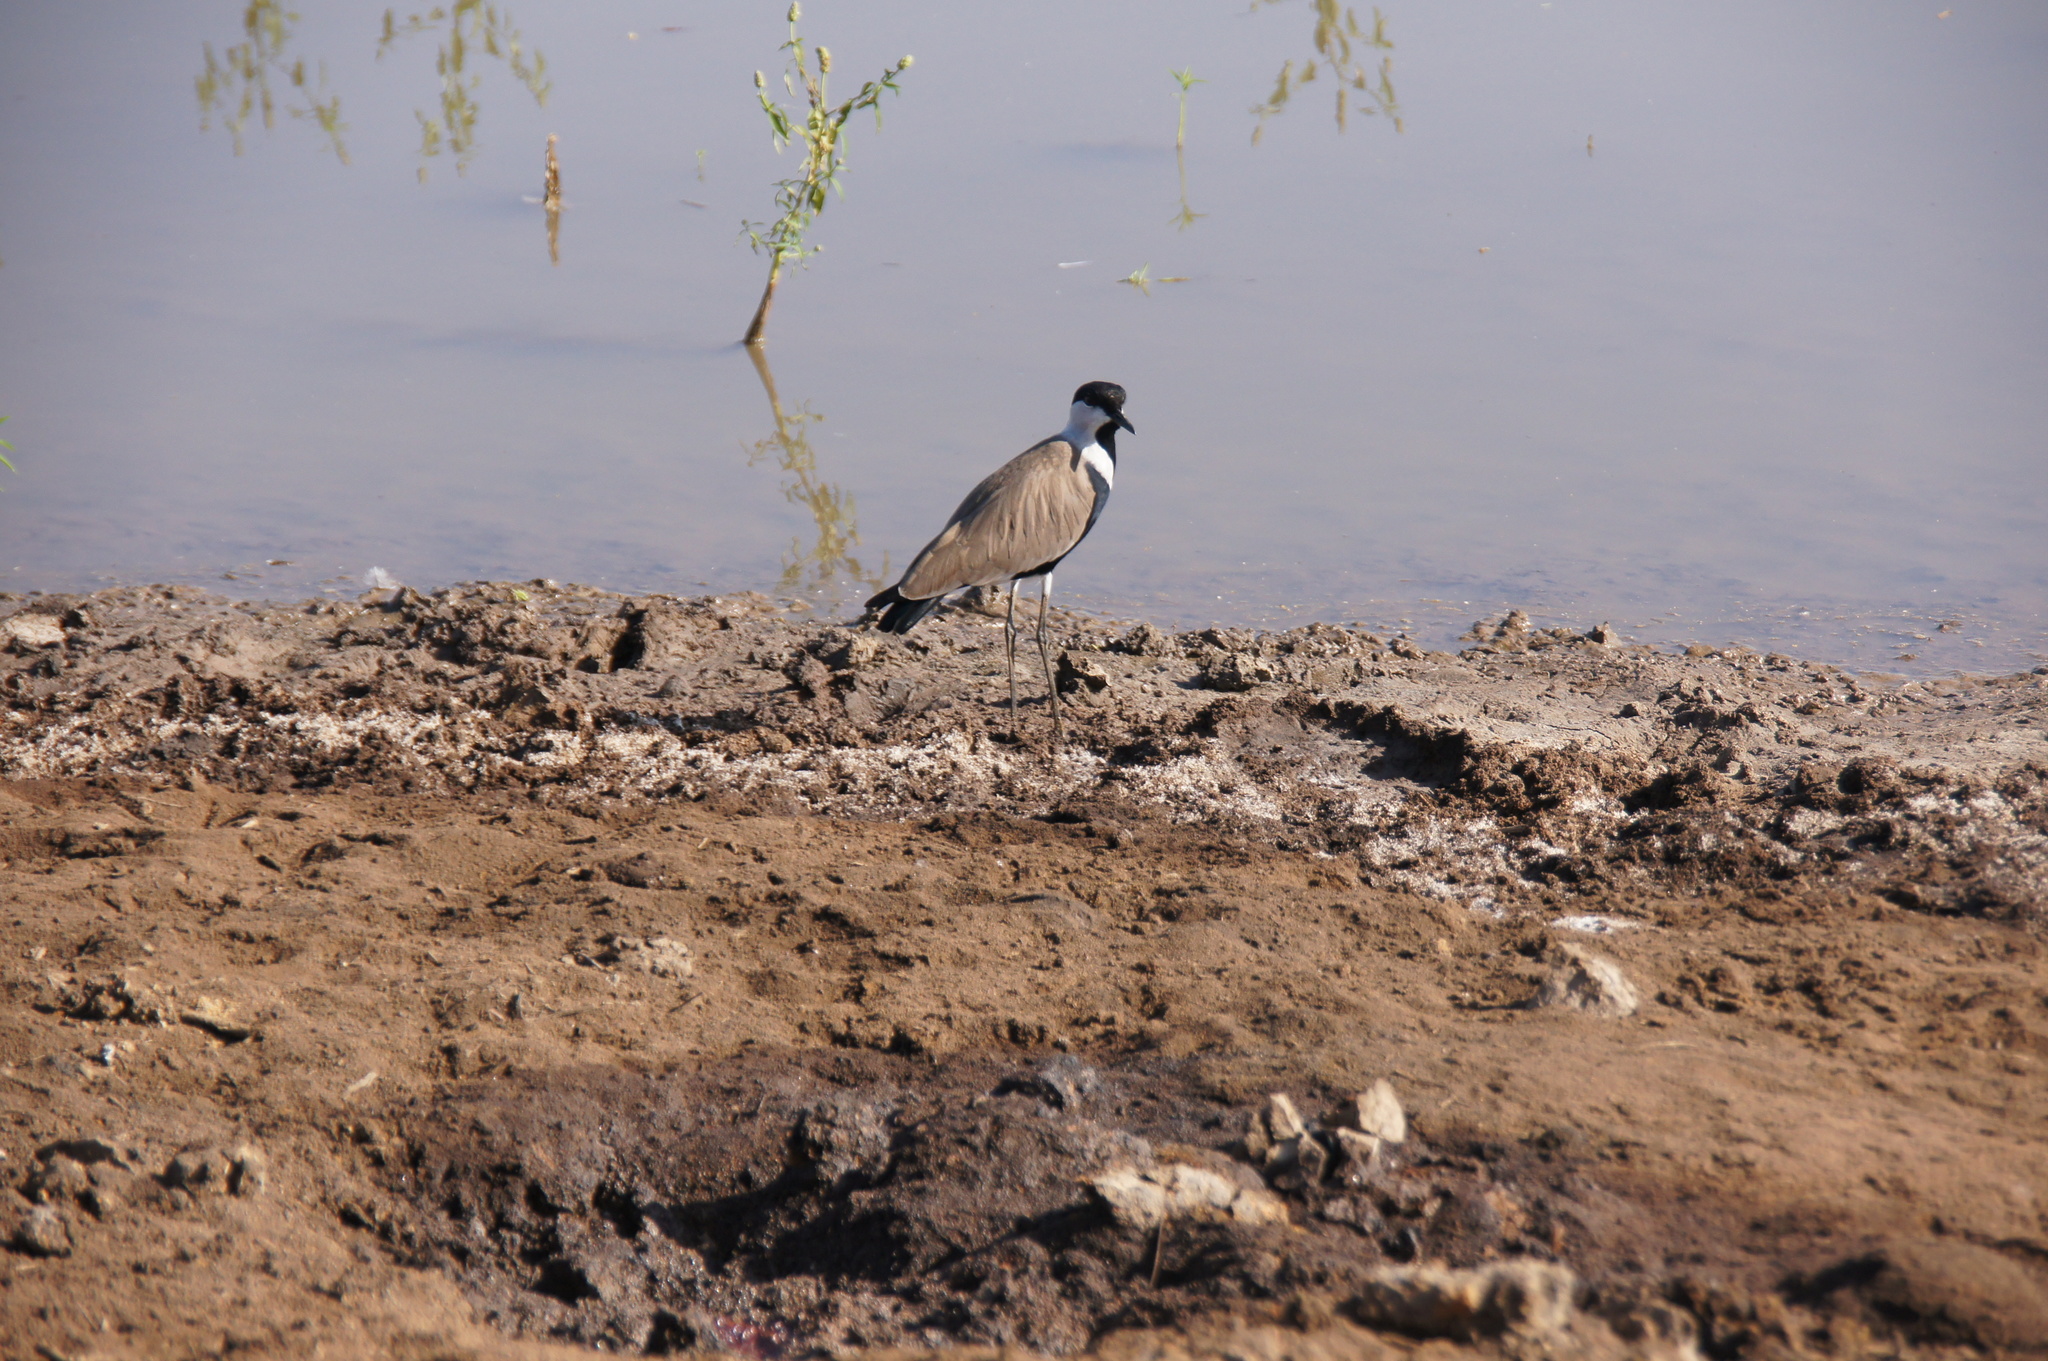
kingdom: Animalia
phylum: Chordata
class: Aves
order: Charadriiformes
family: Charadriidae
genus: Vanellus
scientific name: Vanellus spinosus
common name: Spur-winged lapwing
